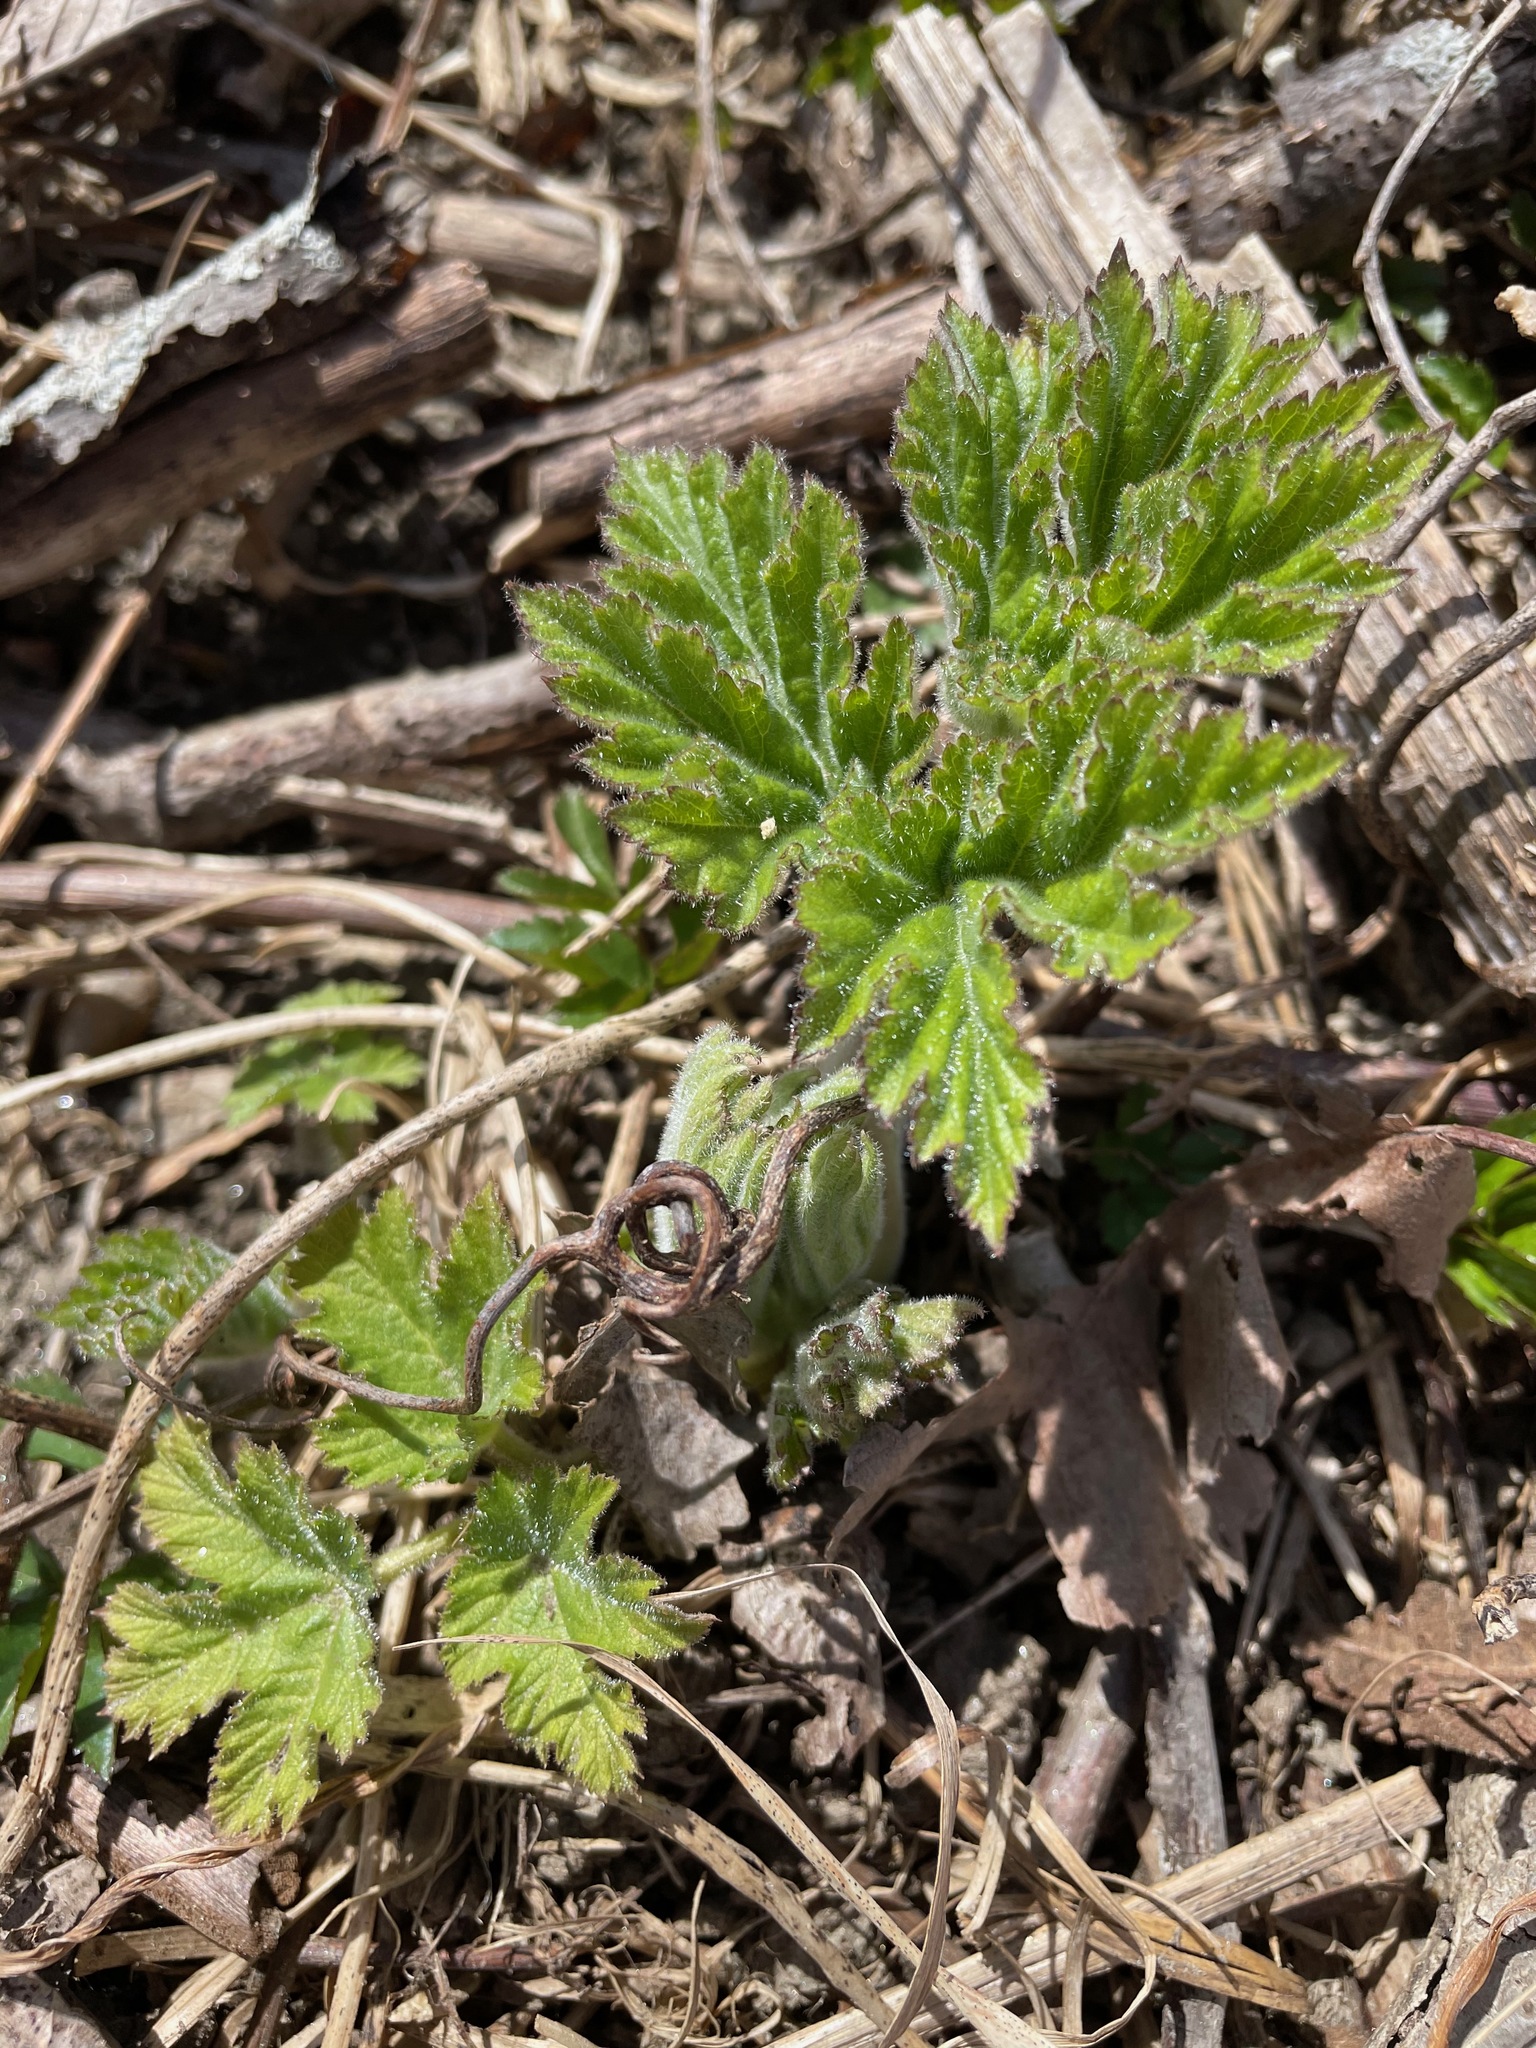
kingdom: Plantae
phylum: Tracheophyta
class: Magnoliopsida
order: Apiales
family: Apiaceae
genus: Heracleum
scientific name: Heracleum maximum
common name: American cow parsnip
